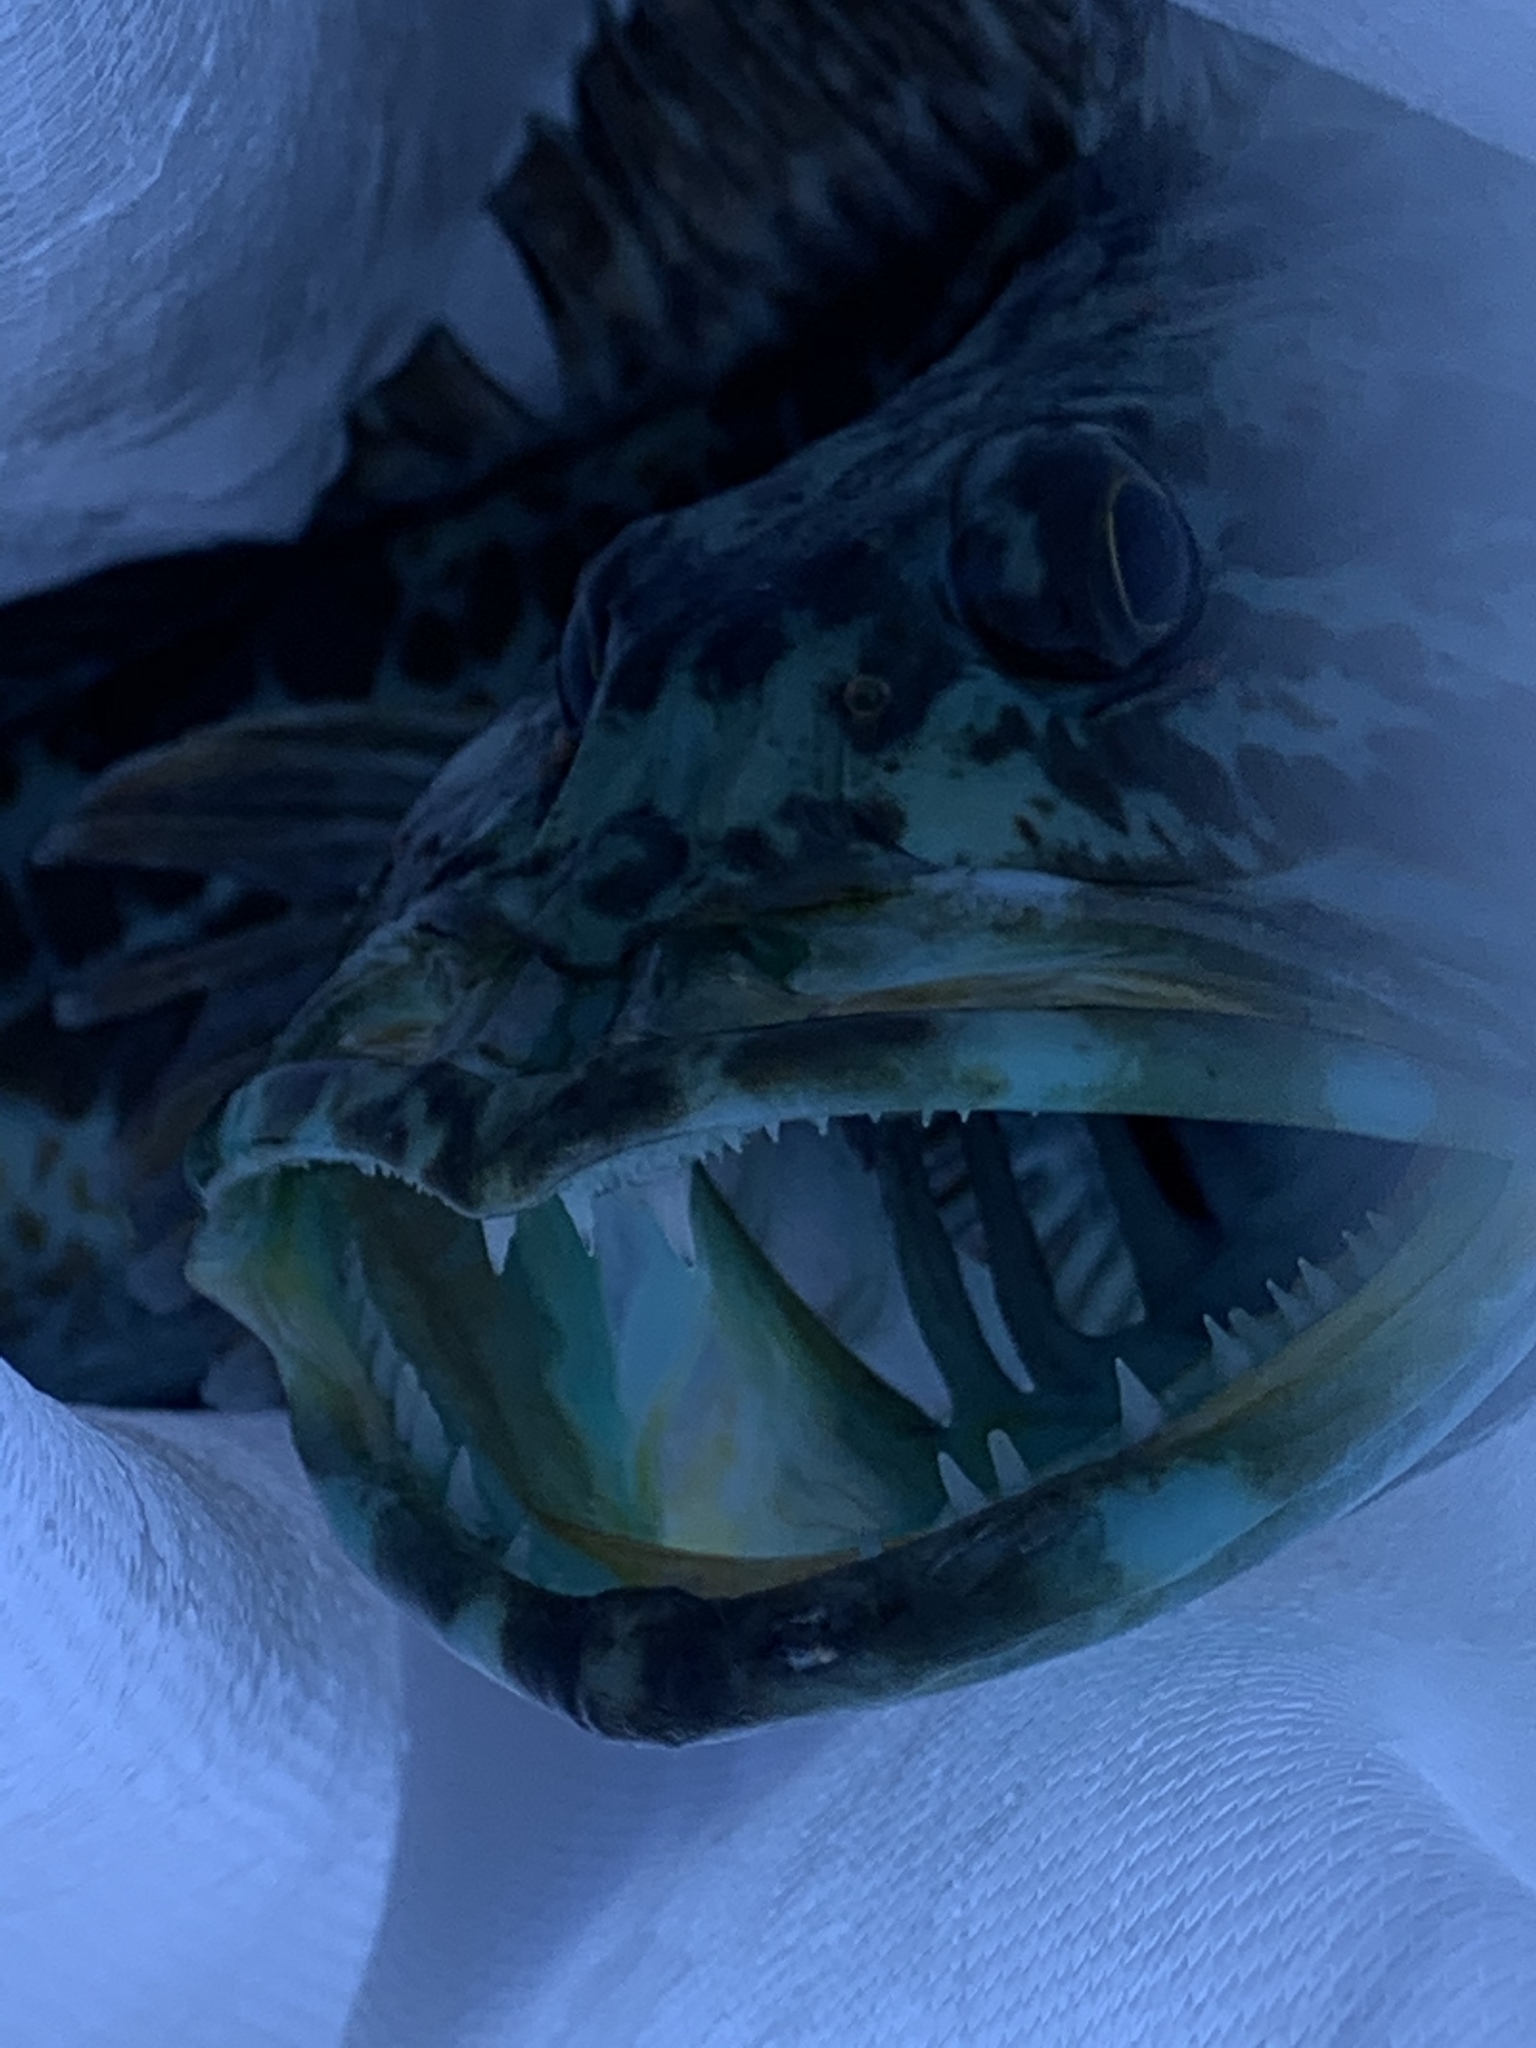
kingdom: Animalia
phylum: Chordata
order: Scorpaeniformes
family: Hexagrammidae
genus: Ophiodon
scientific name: Ophiodon elongatus
